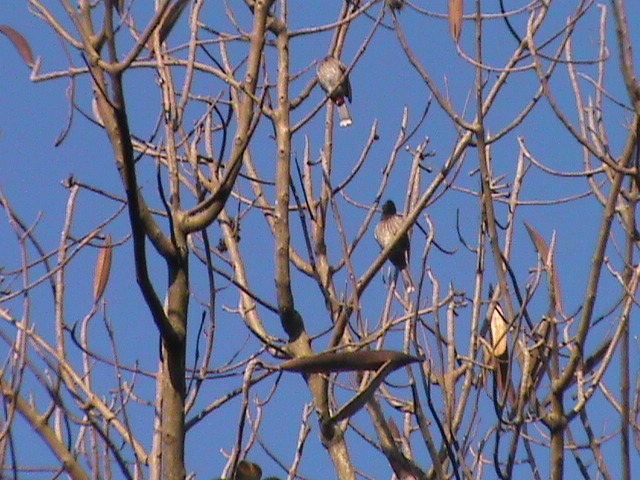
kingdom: Animalia
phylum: Chordata
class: Aves
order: Passeriformes
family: Pycnonotidae
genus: Pycnonotus
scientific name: Pycnonotus cafer
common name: Red-vented bulbul
